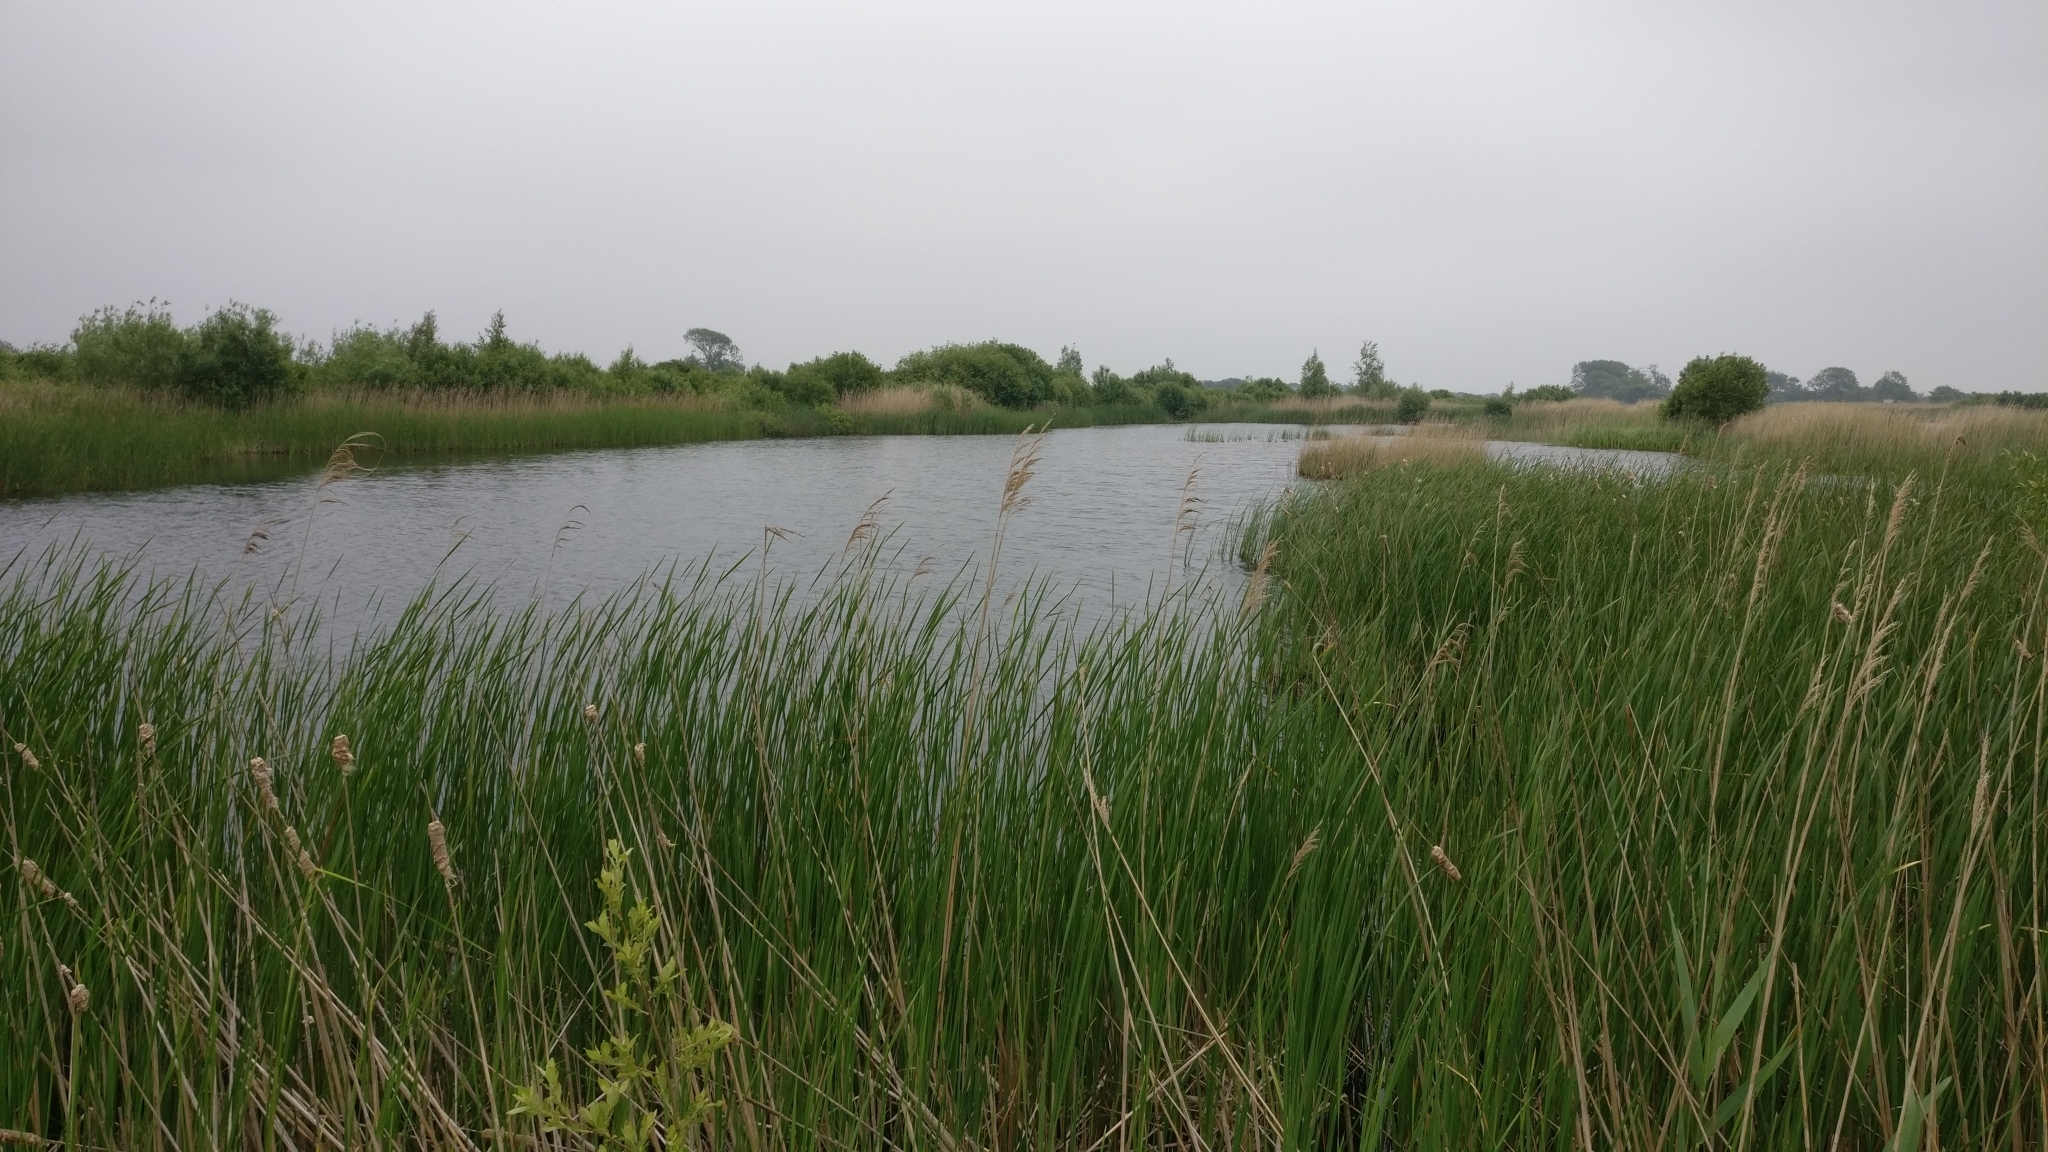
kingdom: Plantae
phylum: Tracheophyta
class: Liliopsida
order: Poales
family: Poaceae
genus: Phragmites
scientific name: Phragmites australis
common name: Common reed
